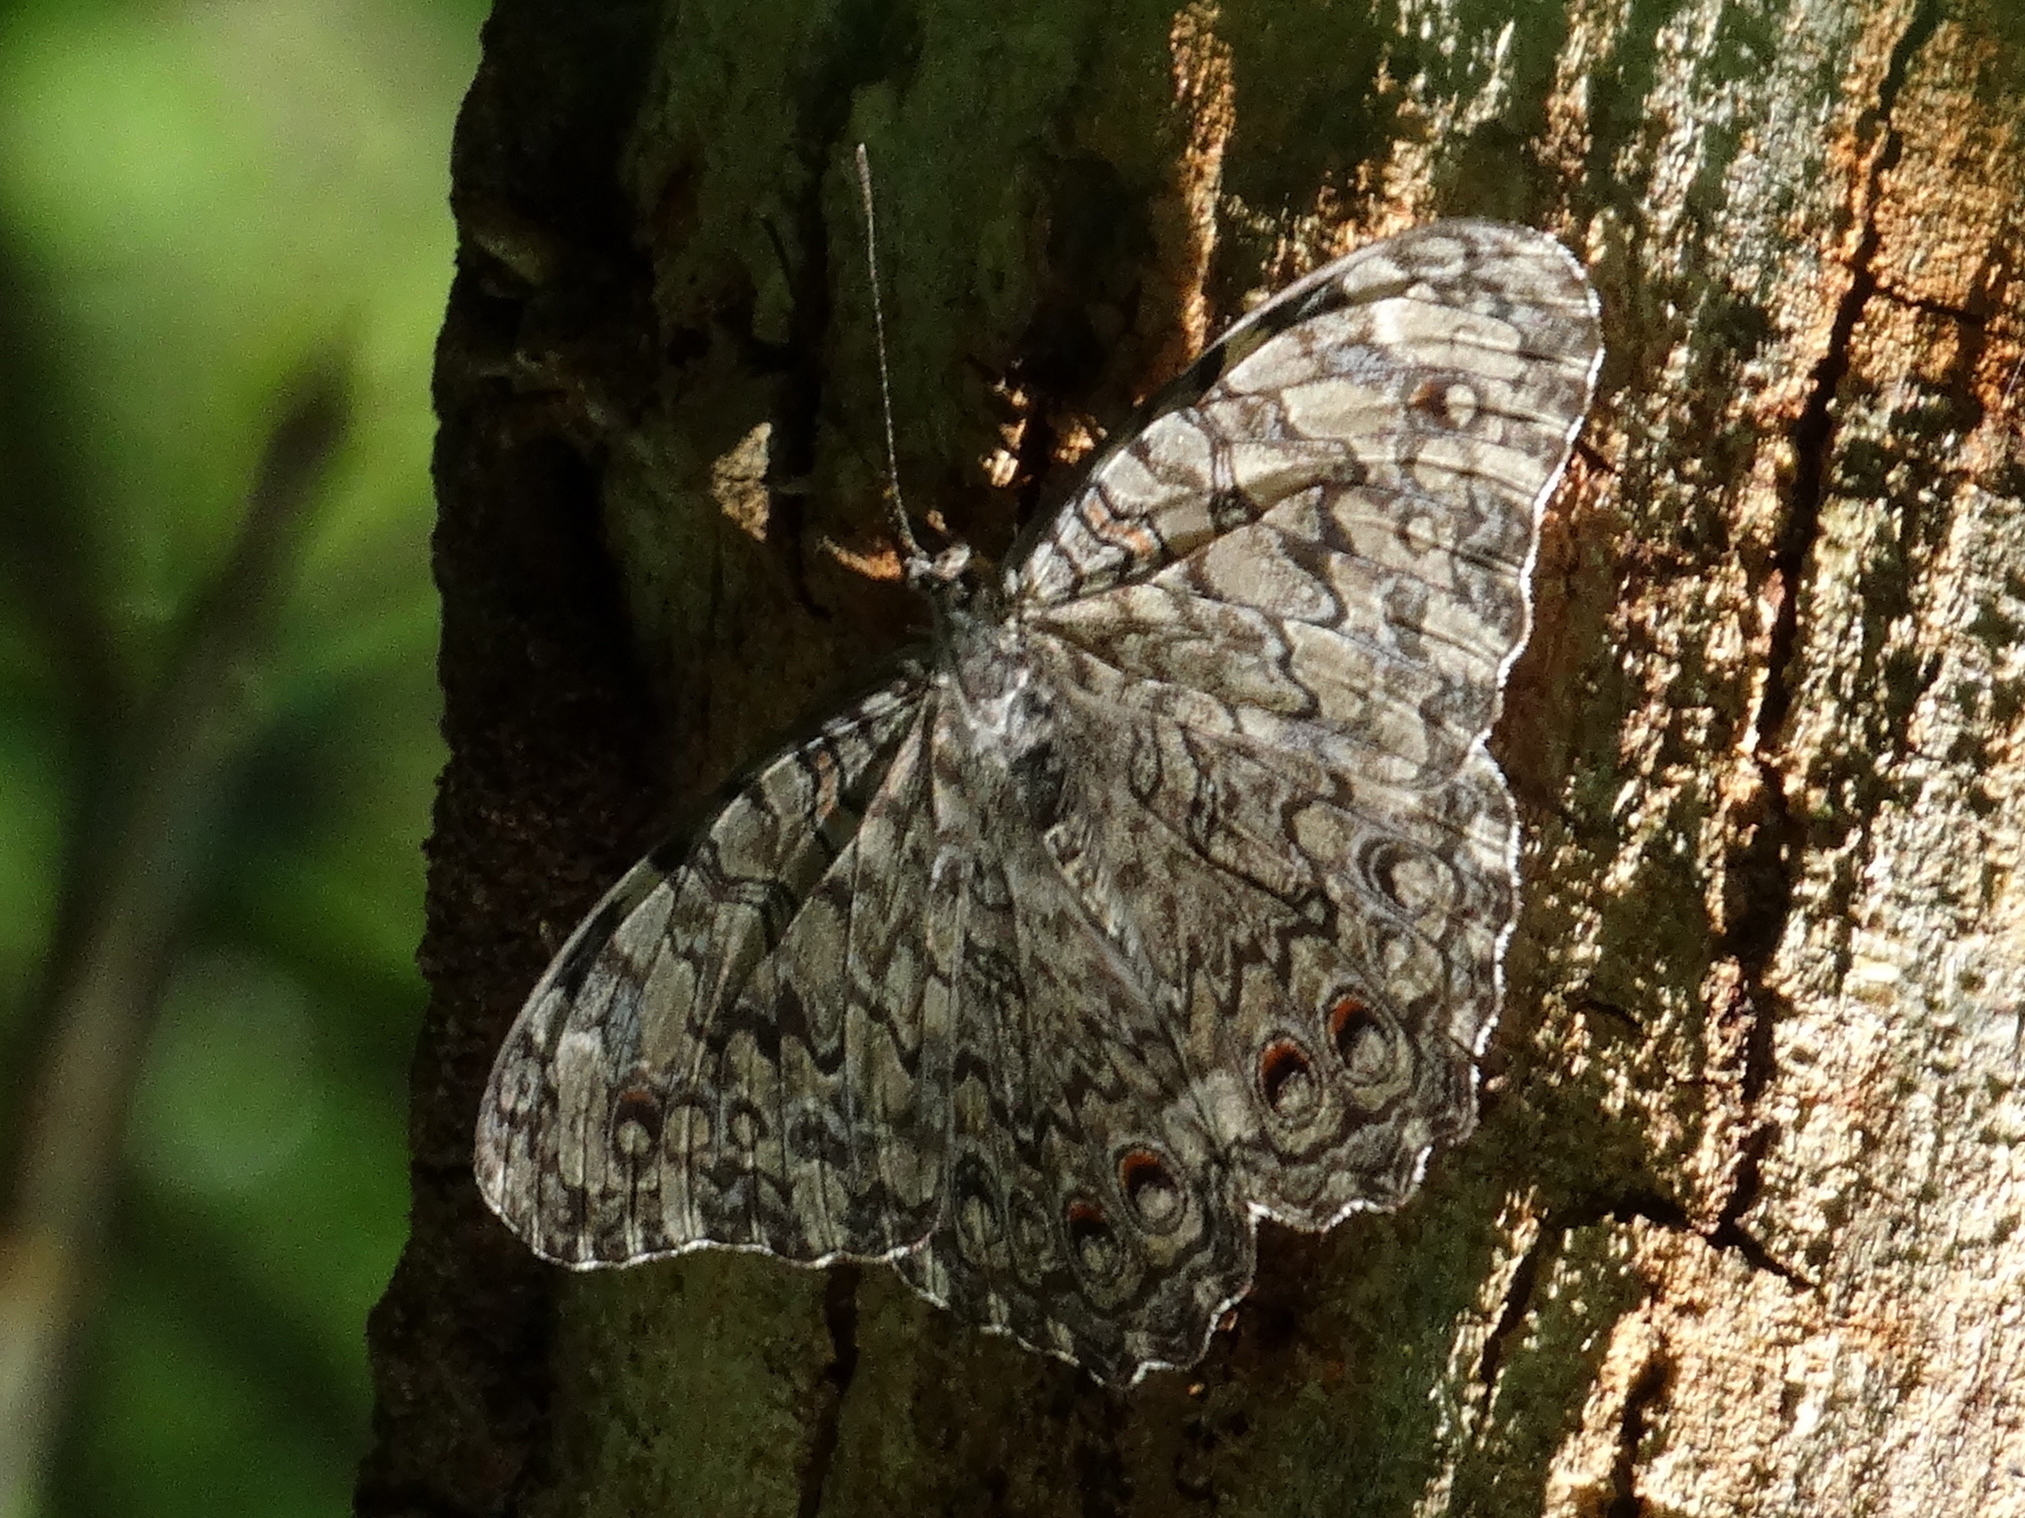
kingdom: Animalia
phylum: Arthropoda
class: Insecta
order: Lepidoptera
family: Nymphalidae
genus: Hamadryas
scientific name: Hamadryas februa
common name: Gray cracker
